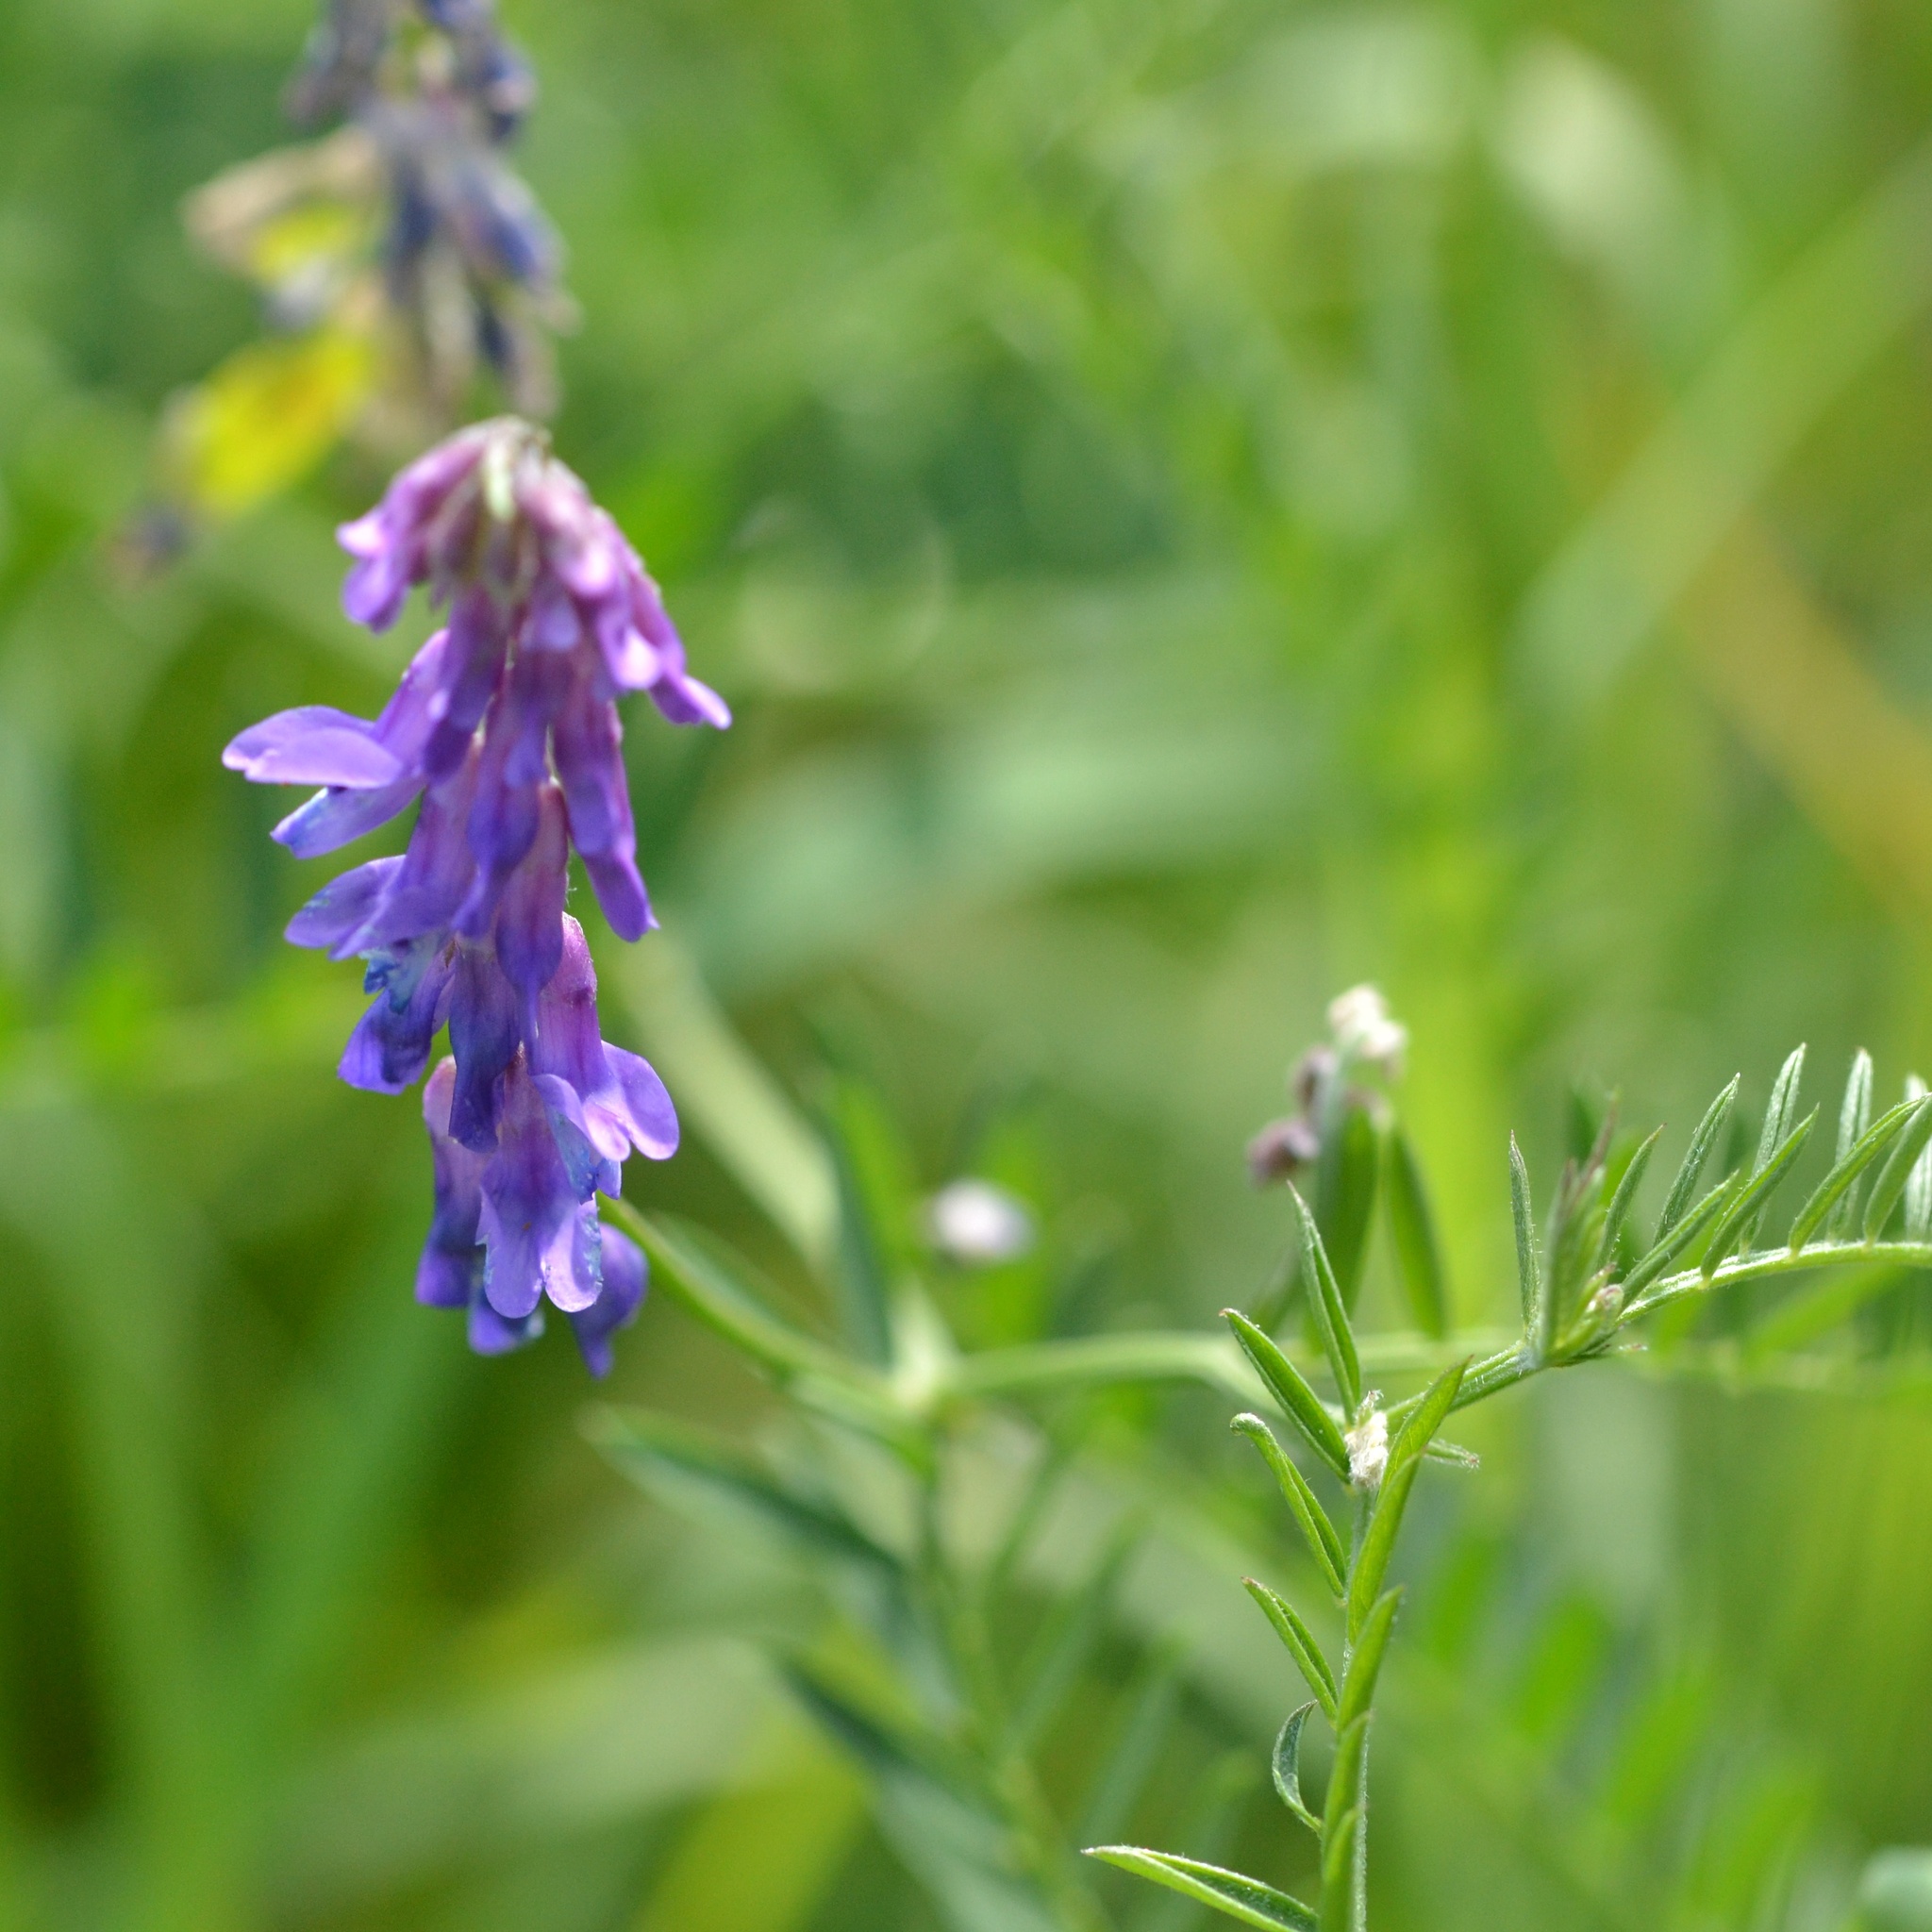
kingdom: Plantae
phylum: Tracheophyta
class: Magnoliopsida
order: Fabales
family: Fabaceae
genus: Vicia
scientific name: Vicia cracca
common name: Bird vetch
